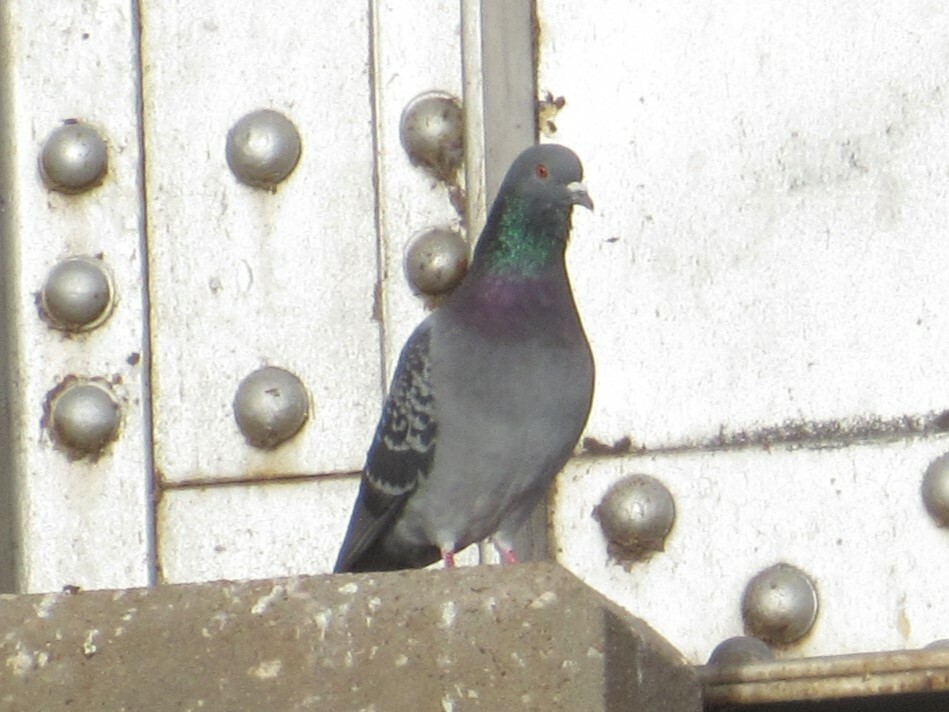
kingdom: Animalia
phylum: Chordata
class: Aves
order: Columbiformes
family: Columbidae
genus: Columba
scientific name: Columba livia
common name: Rock pigeon
